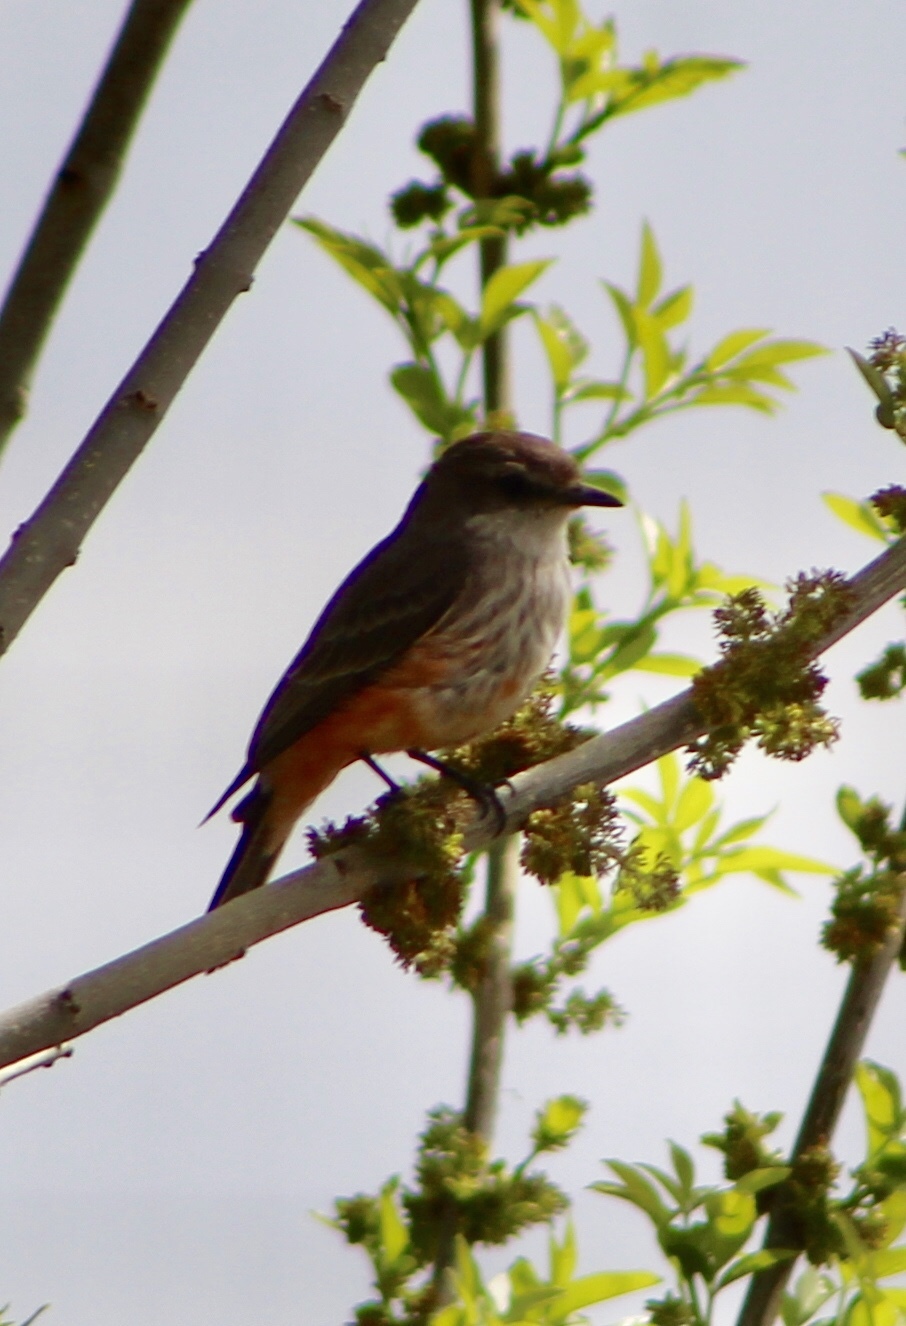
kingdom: Animalia
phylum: Chordata
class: Aves
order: Passeriformes
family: Tyrannidae
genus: Pyrocephalus
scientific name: Pyrocephalus rubinus
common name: Vermilion flycatcher
